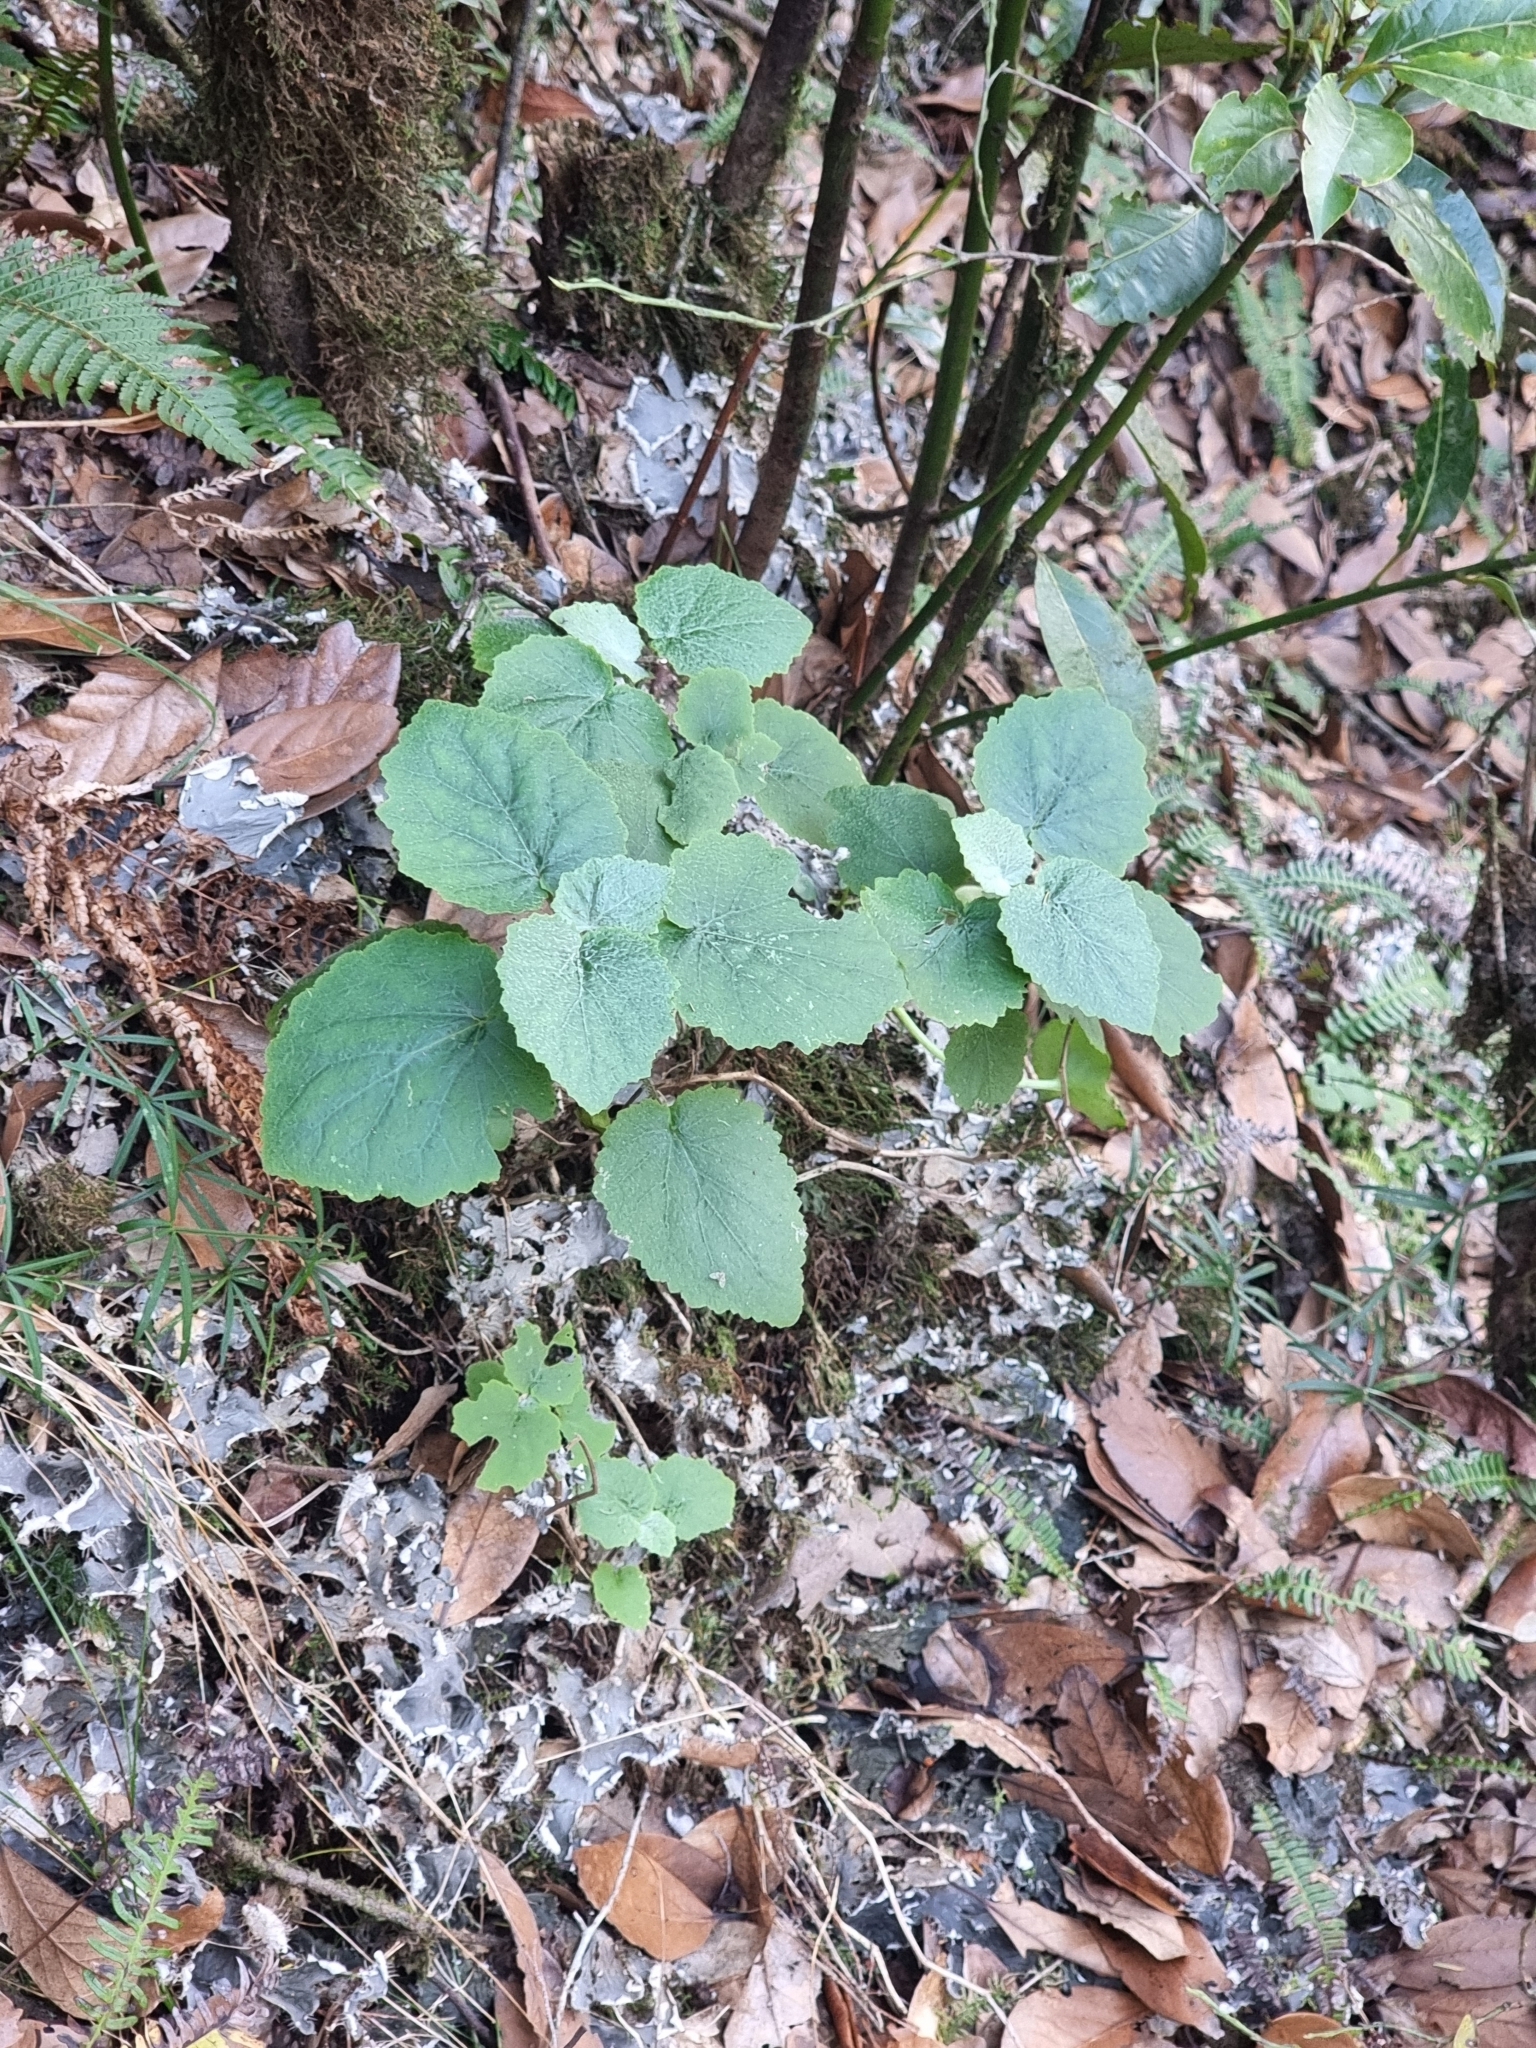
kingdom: Plantae
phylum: Tracheophyta
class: Magnoliopsida
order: Asterales
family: Asteraceae
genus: Pericallis
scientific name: Pericallis aurita
